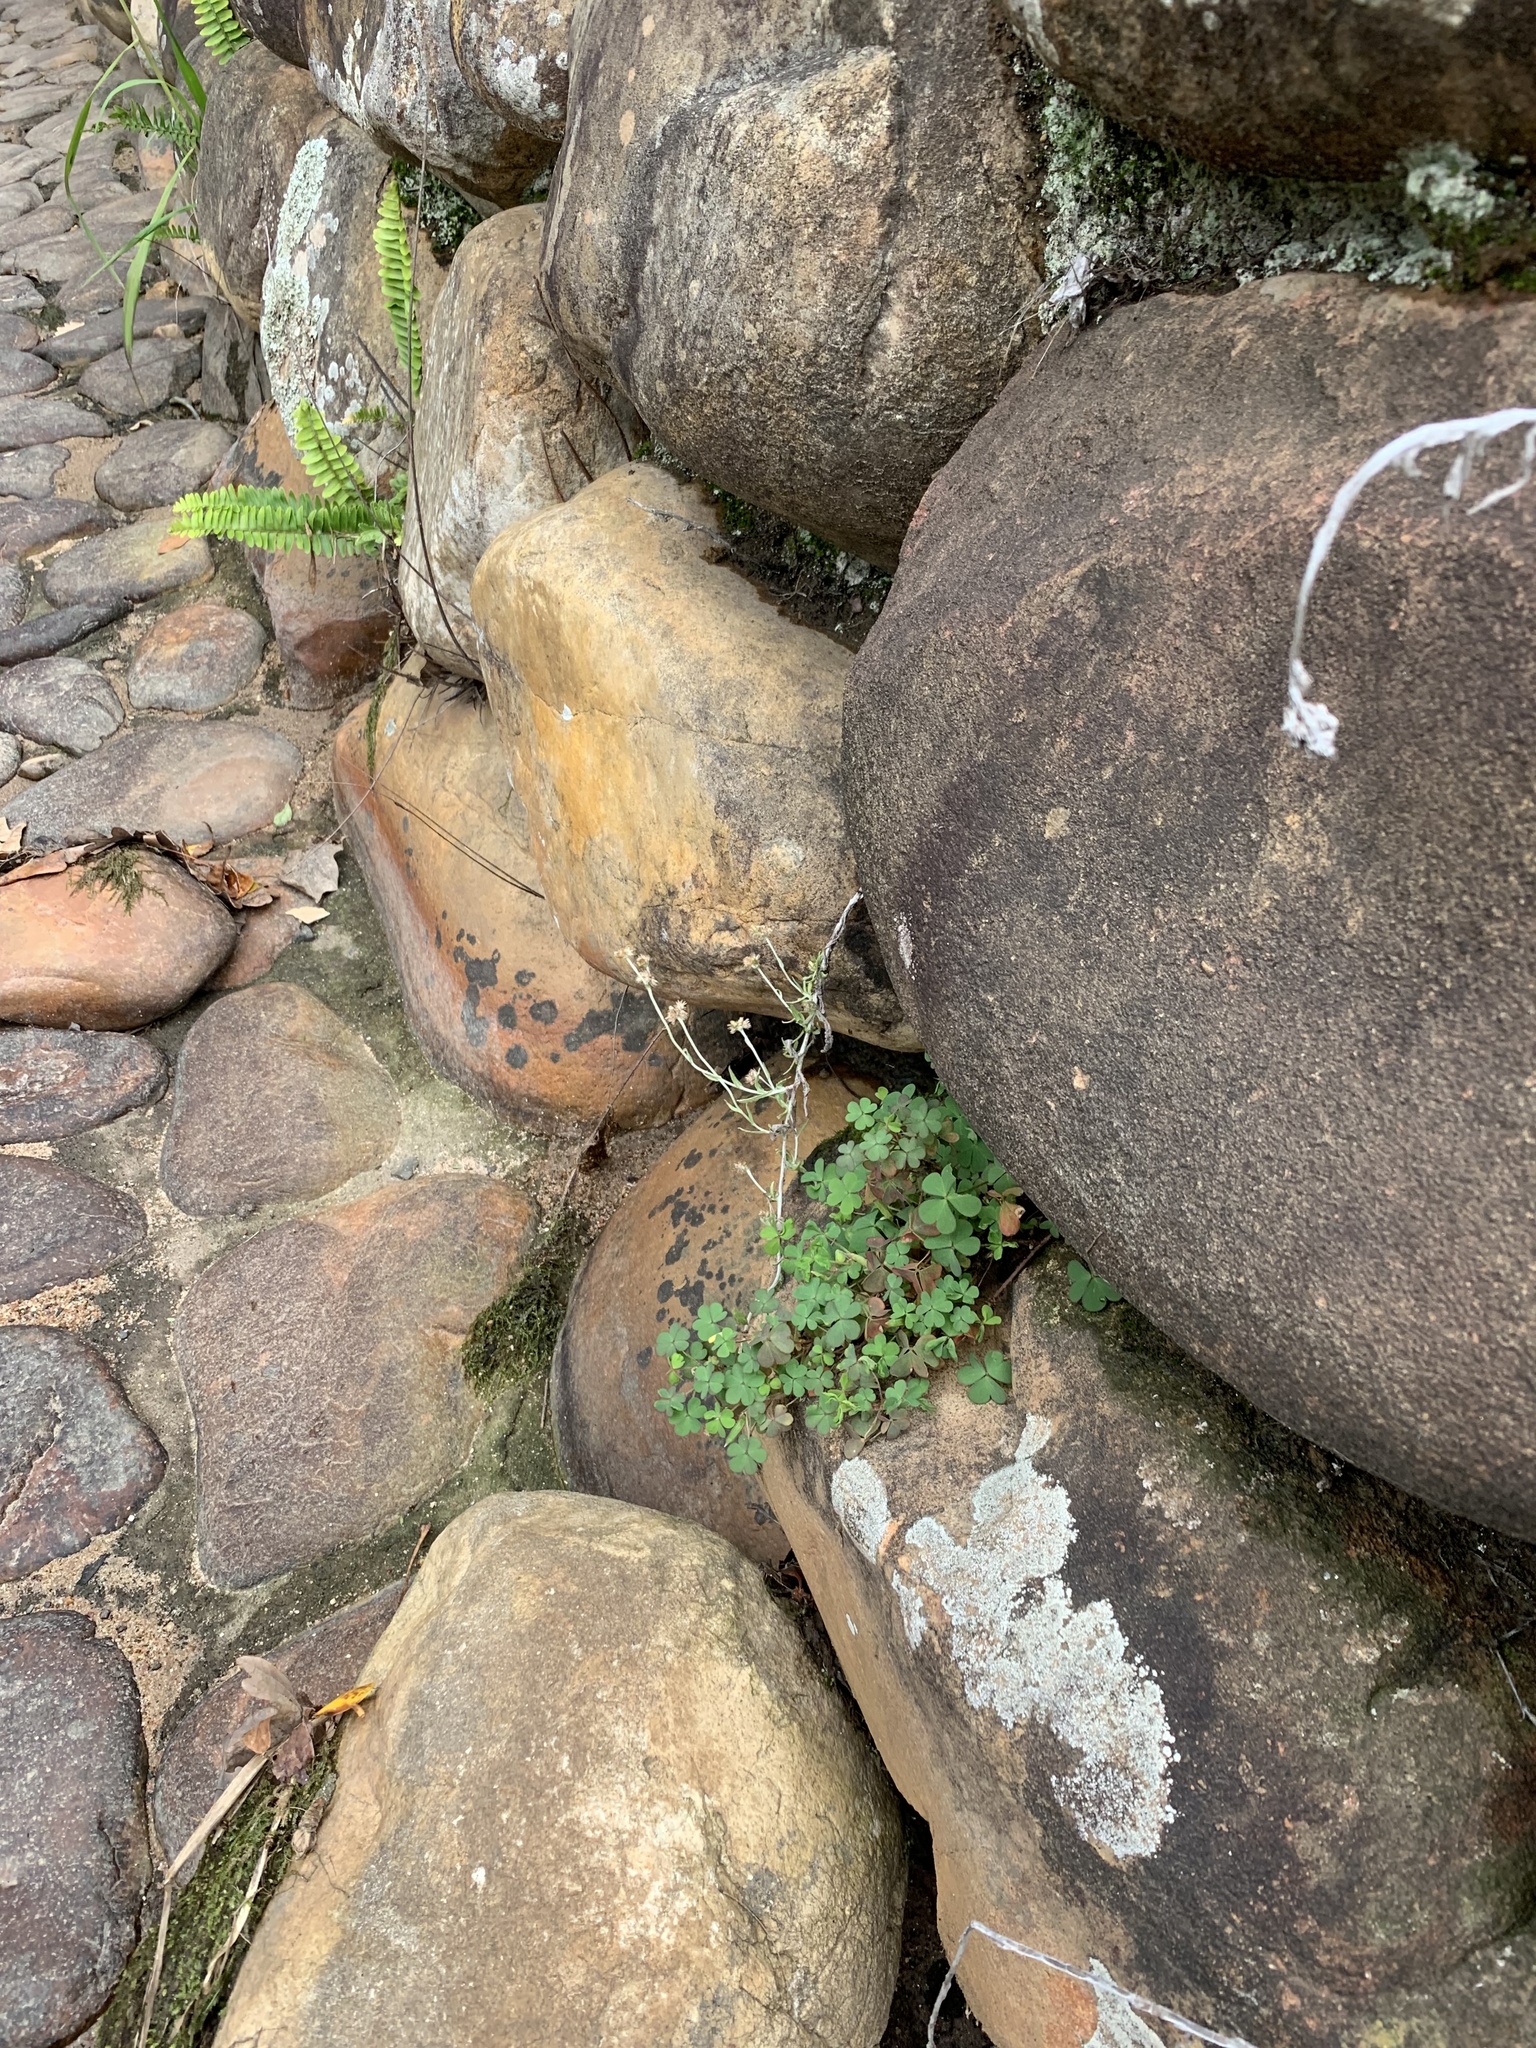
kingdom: Plantae
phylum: Tracheophyta
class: Magnoliopsida
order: Oxalidales
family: Oxalidaceae
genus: Oxalis
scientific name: Oxalis corniculata
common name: Procumbent yellow-sorrel
